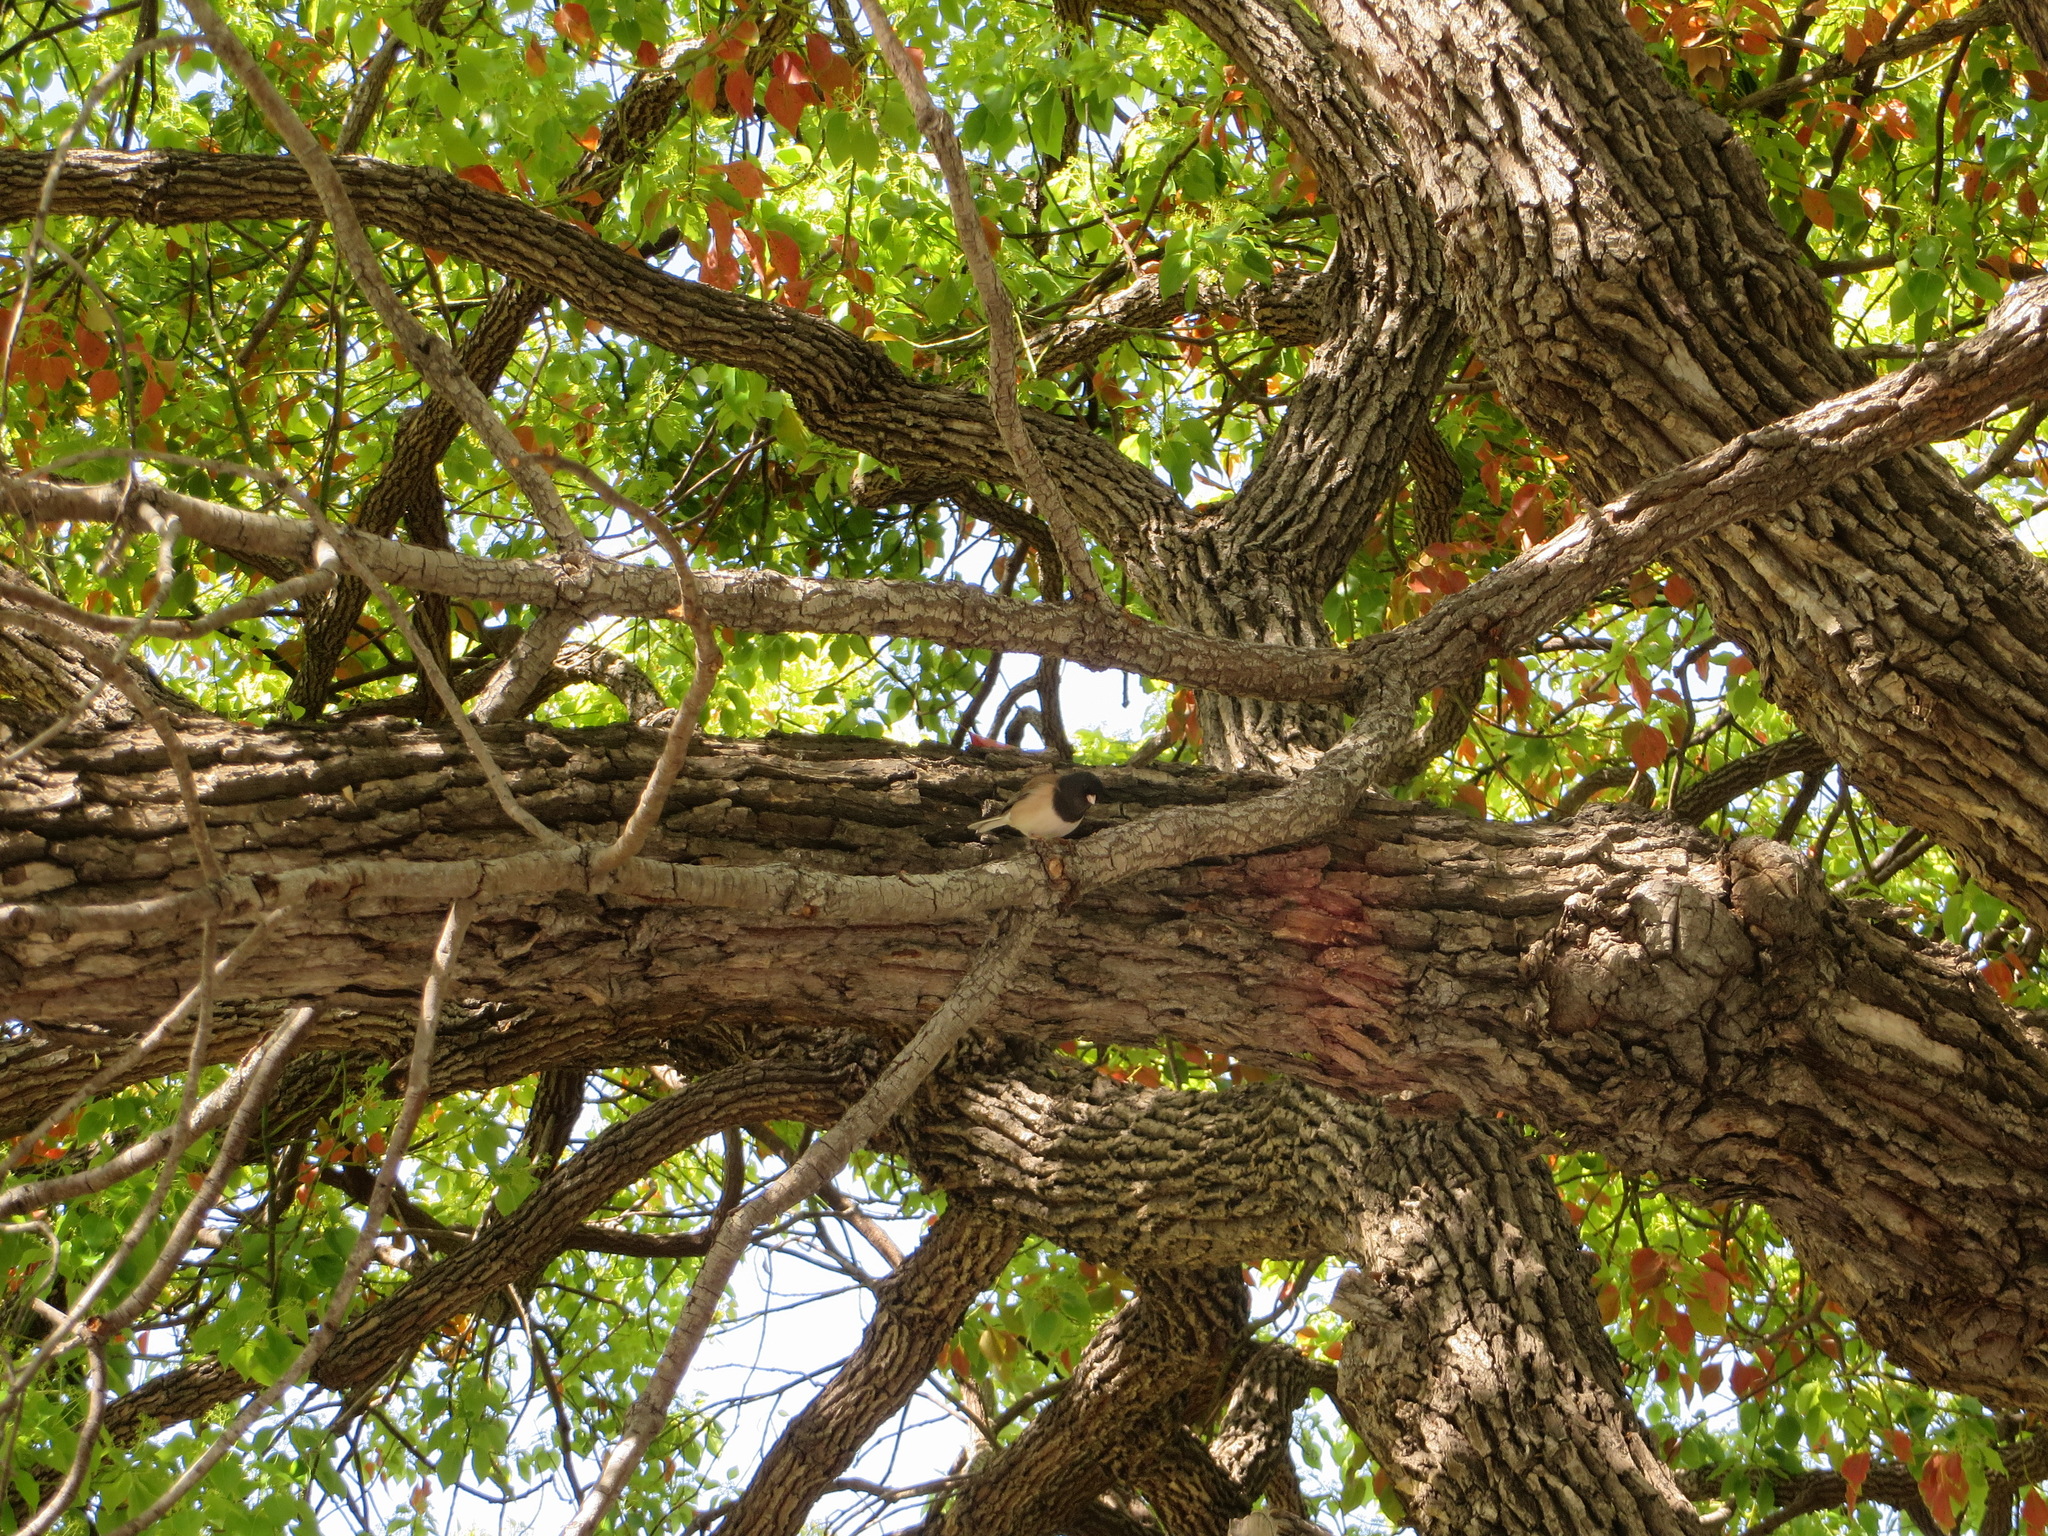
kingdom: Animalia
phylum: Chordata
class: Aves
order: Passeriformes
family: Passerellidae
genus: Junco
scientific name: Junco hyemalis
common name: Dark-eyed junco
